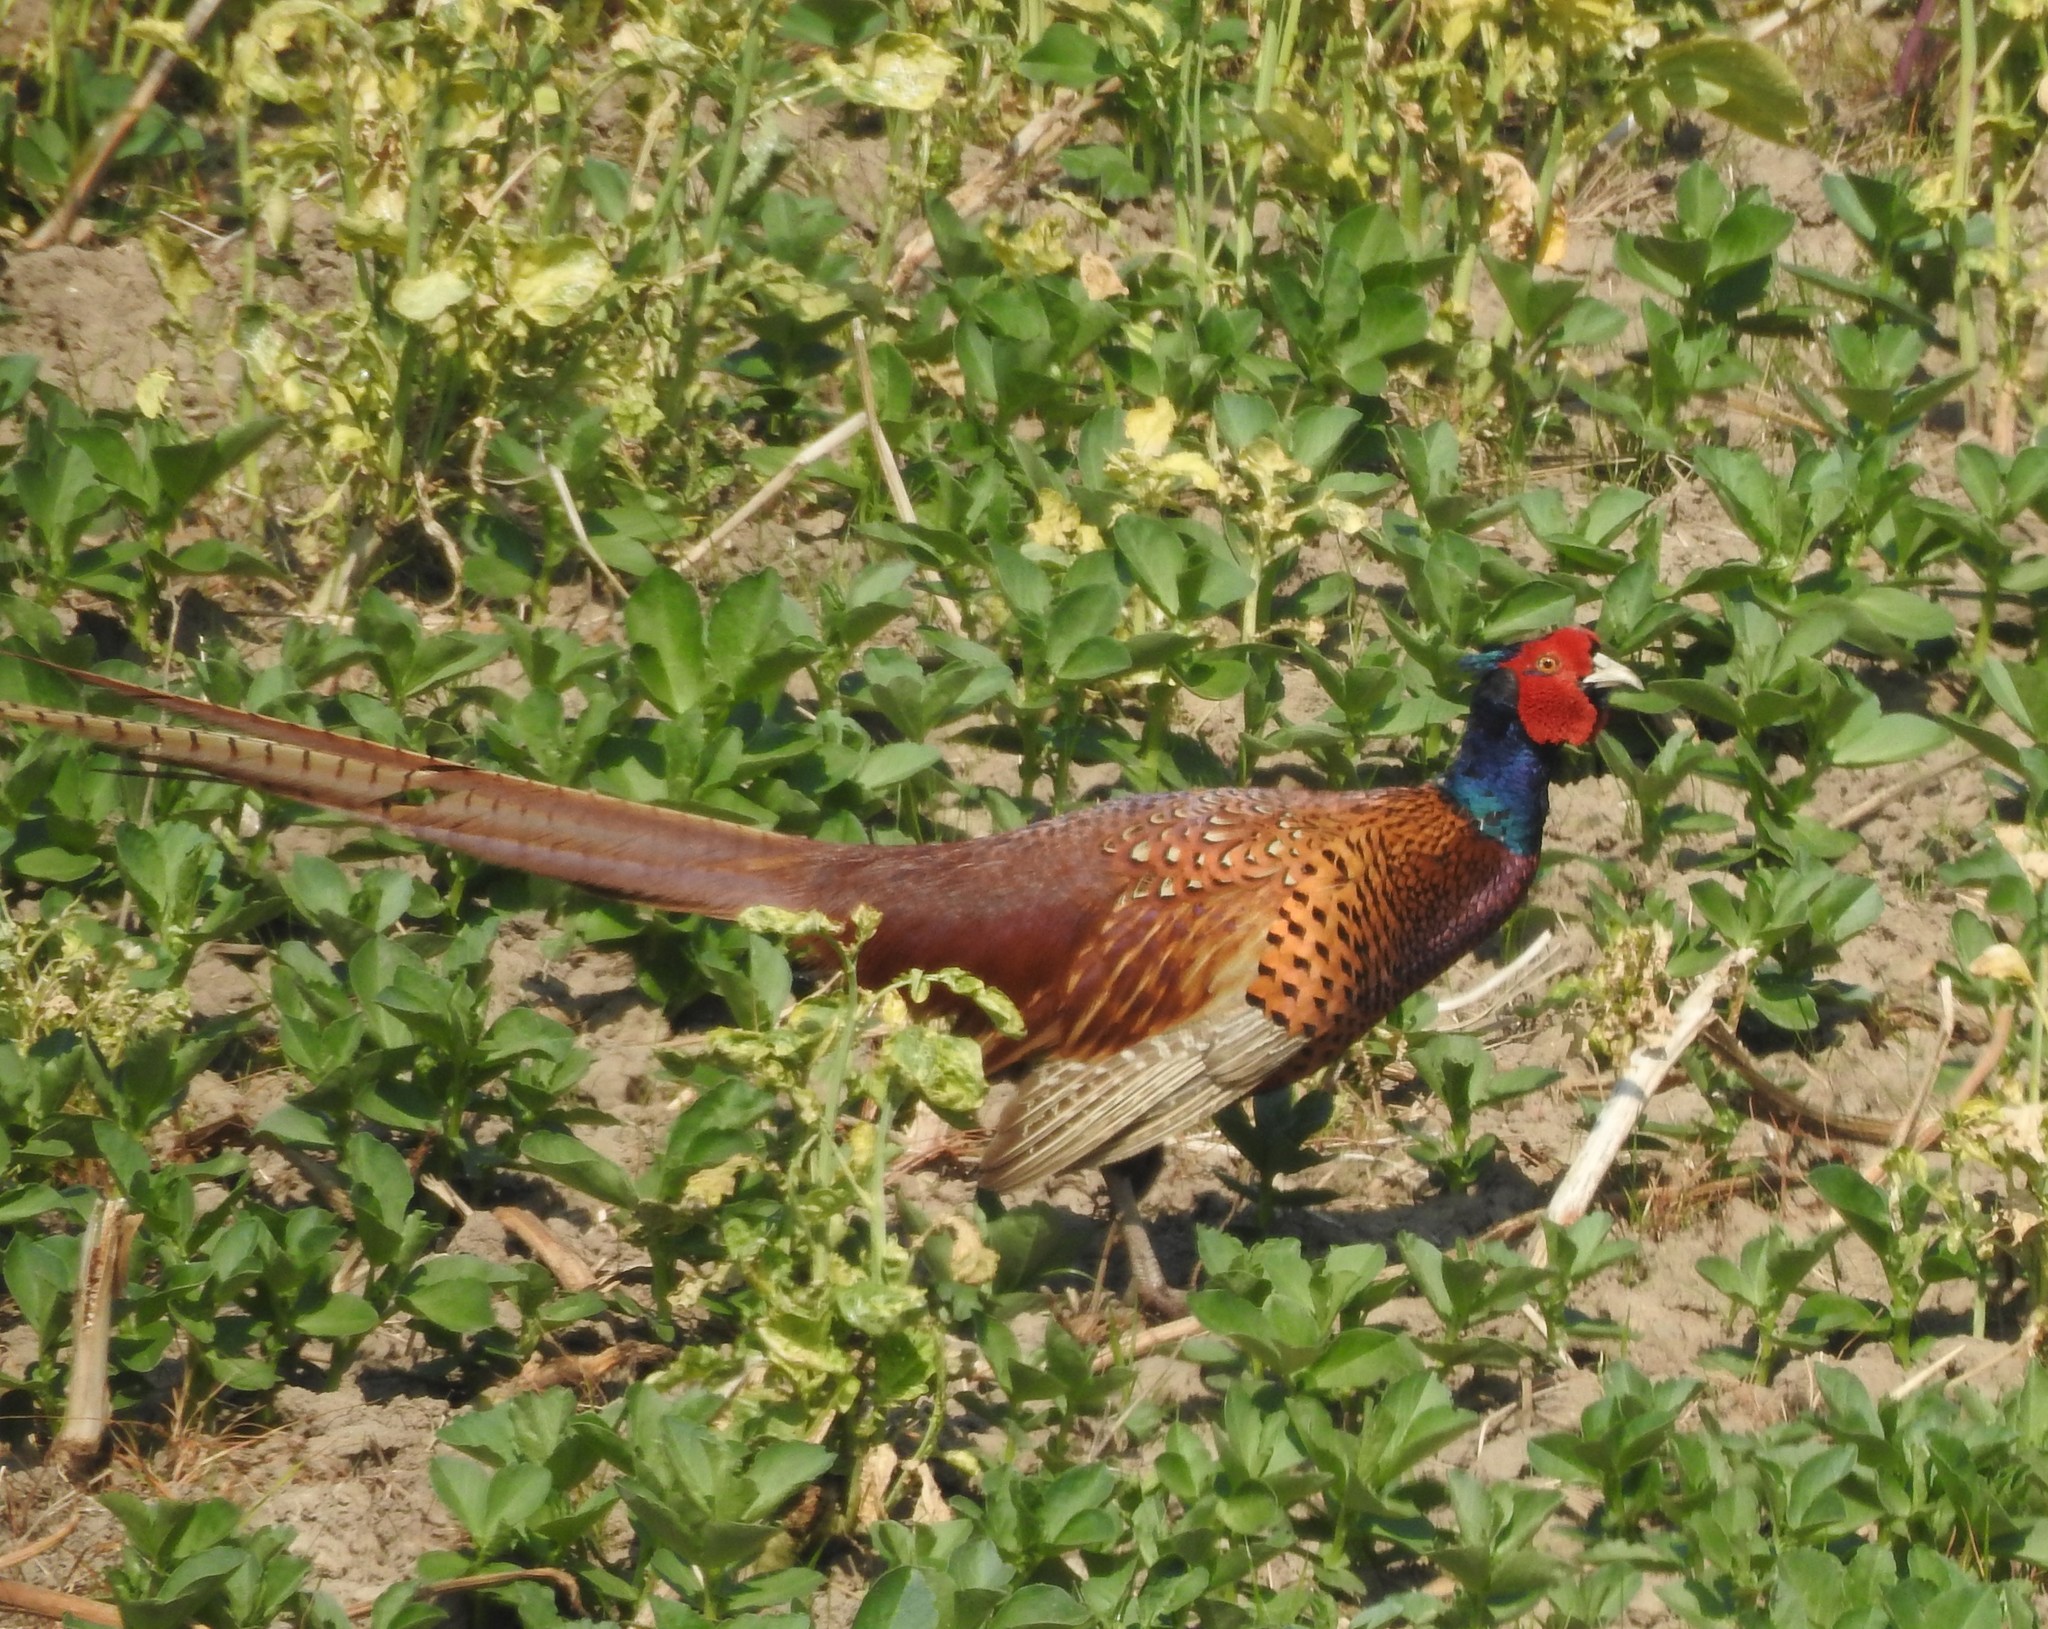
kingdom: Animalia
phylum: Chordata
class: Aves
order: Galliformes
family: Phasianidae
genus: Phasianus
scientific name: Phasianus colchicus
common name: Common pheasant
